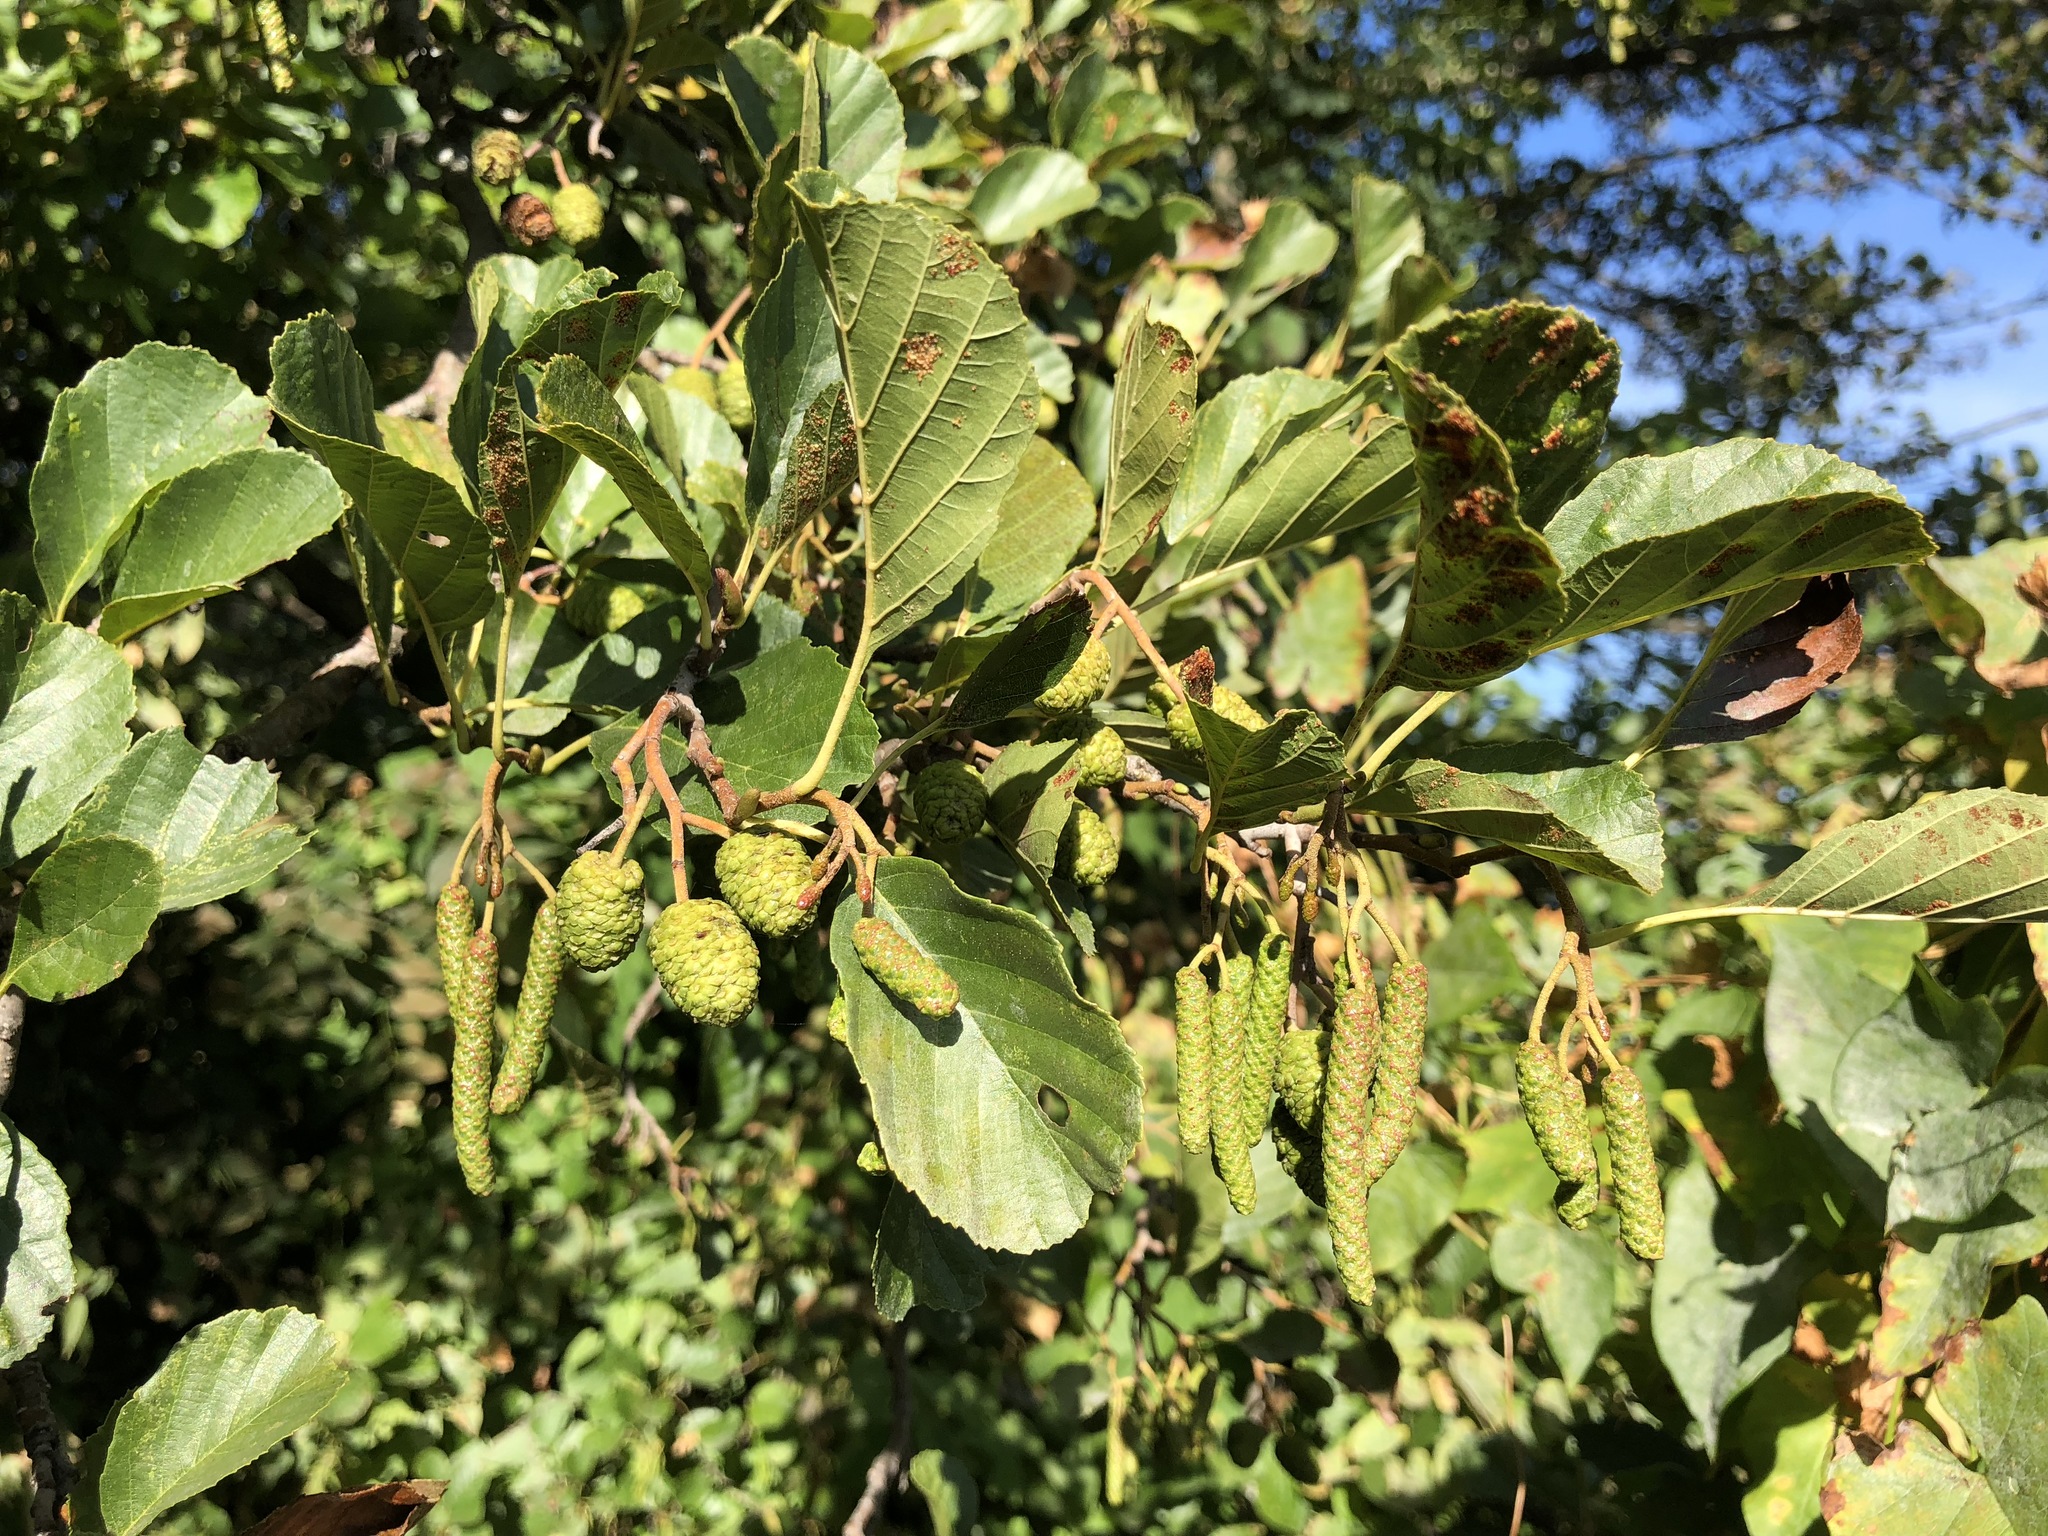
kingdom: Plantae
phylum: Tracheophyta
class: Magnoliopsida
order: Fagales
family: Betulaceae
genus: Alnus
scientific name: Alnus glutinosa
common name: Black alder
